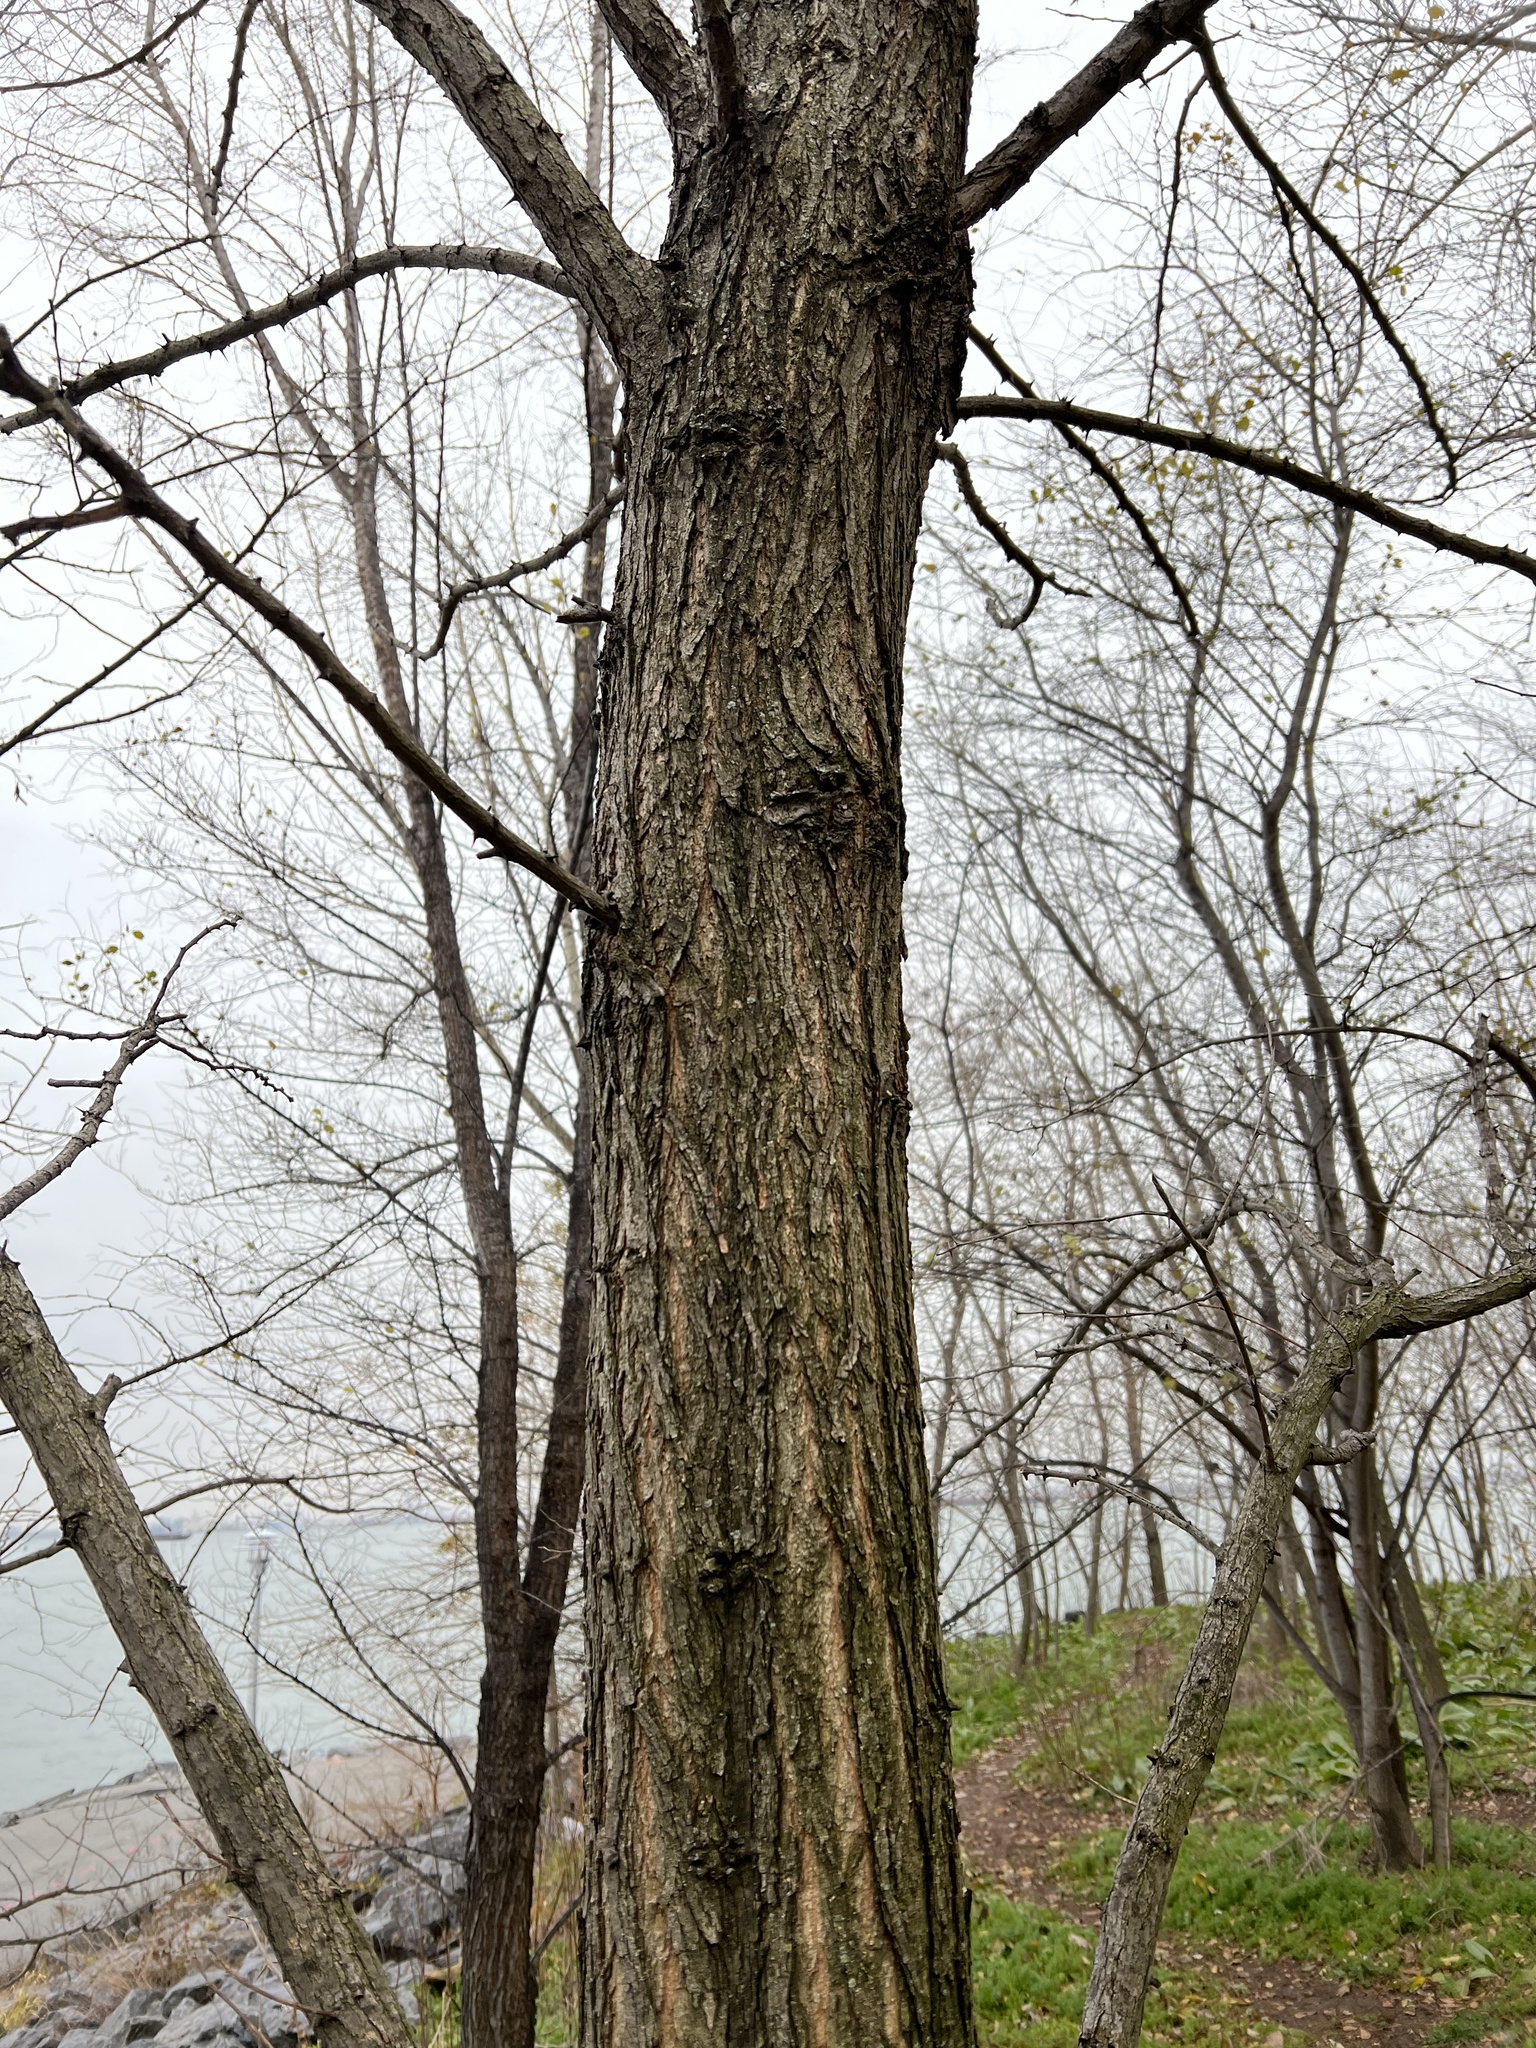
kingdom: Plantae
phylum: Tracheophyta
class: Magnoliopsida
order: Fabales
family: Fabaceae
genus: Robinia
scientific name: Robinia pseudoacacia
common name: Black locust
